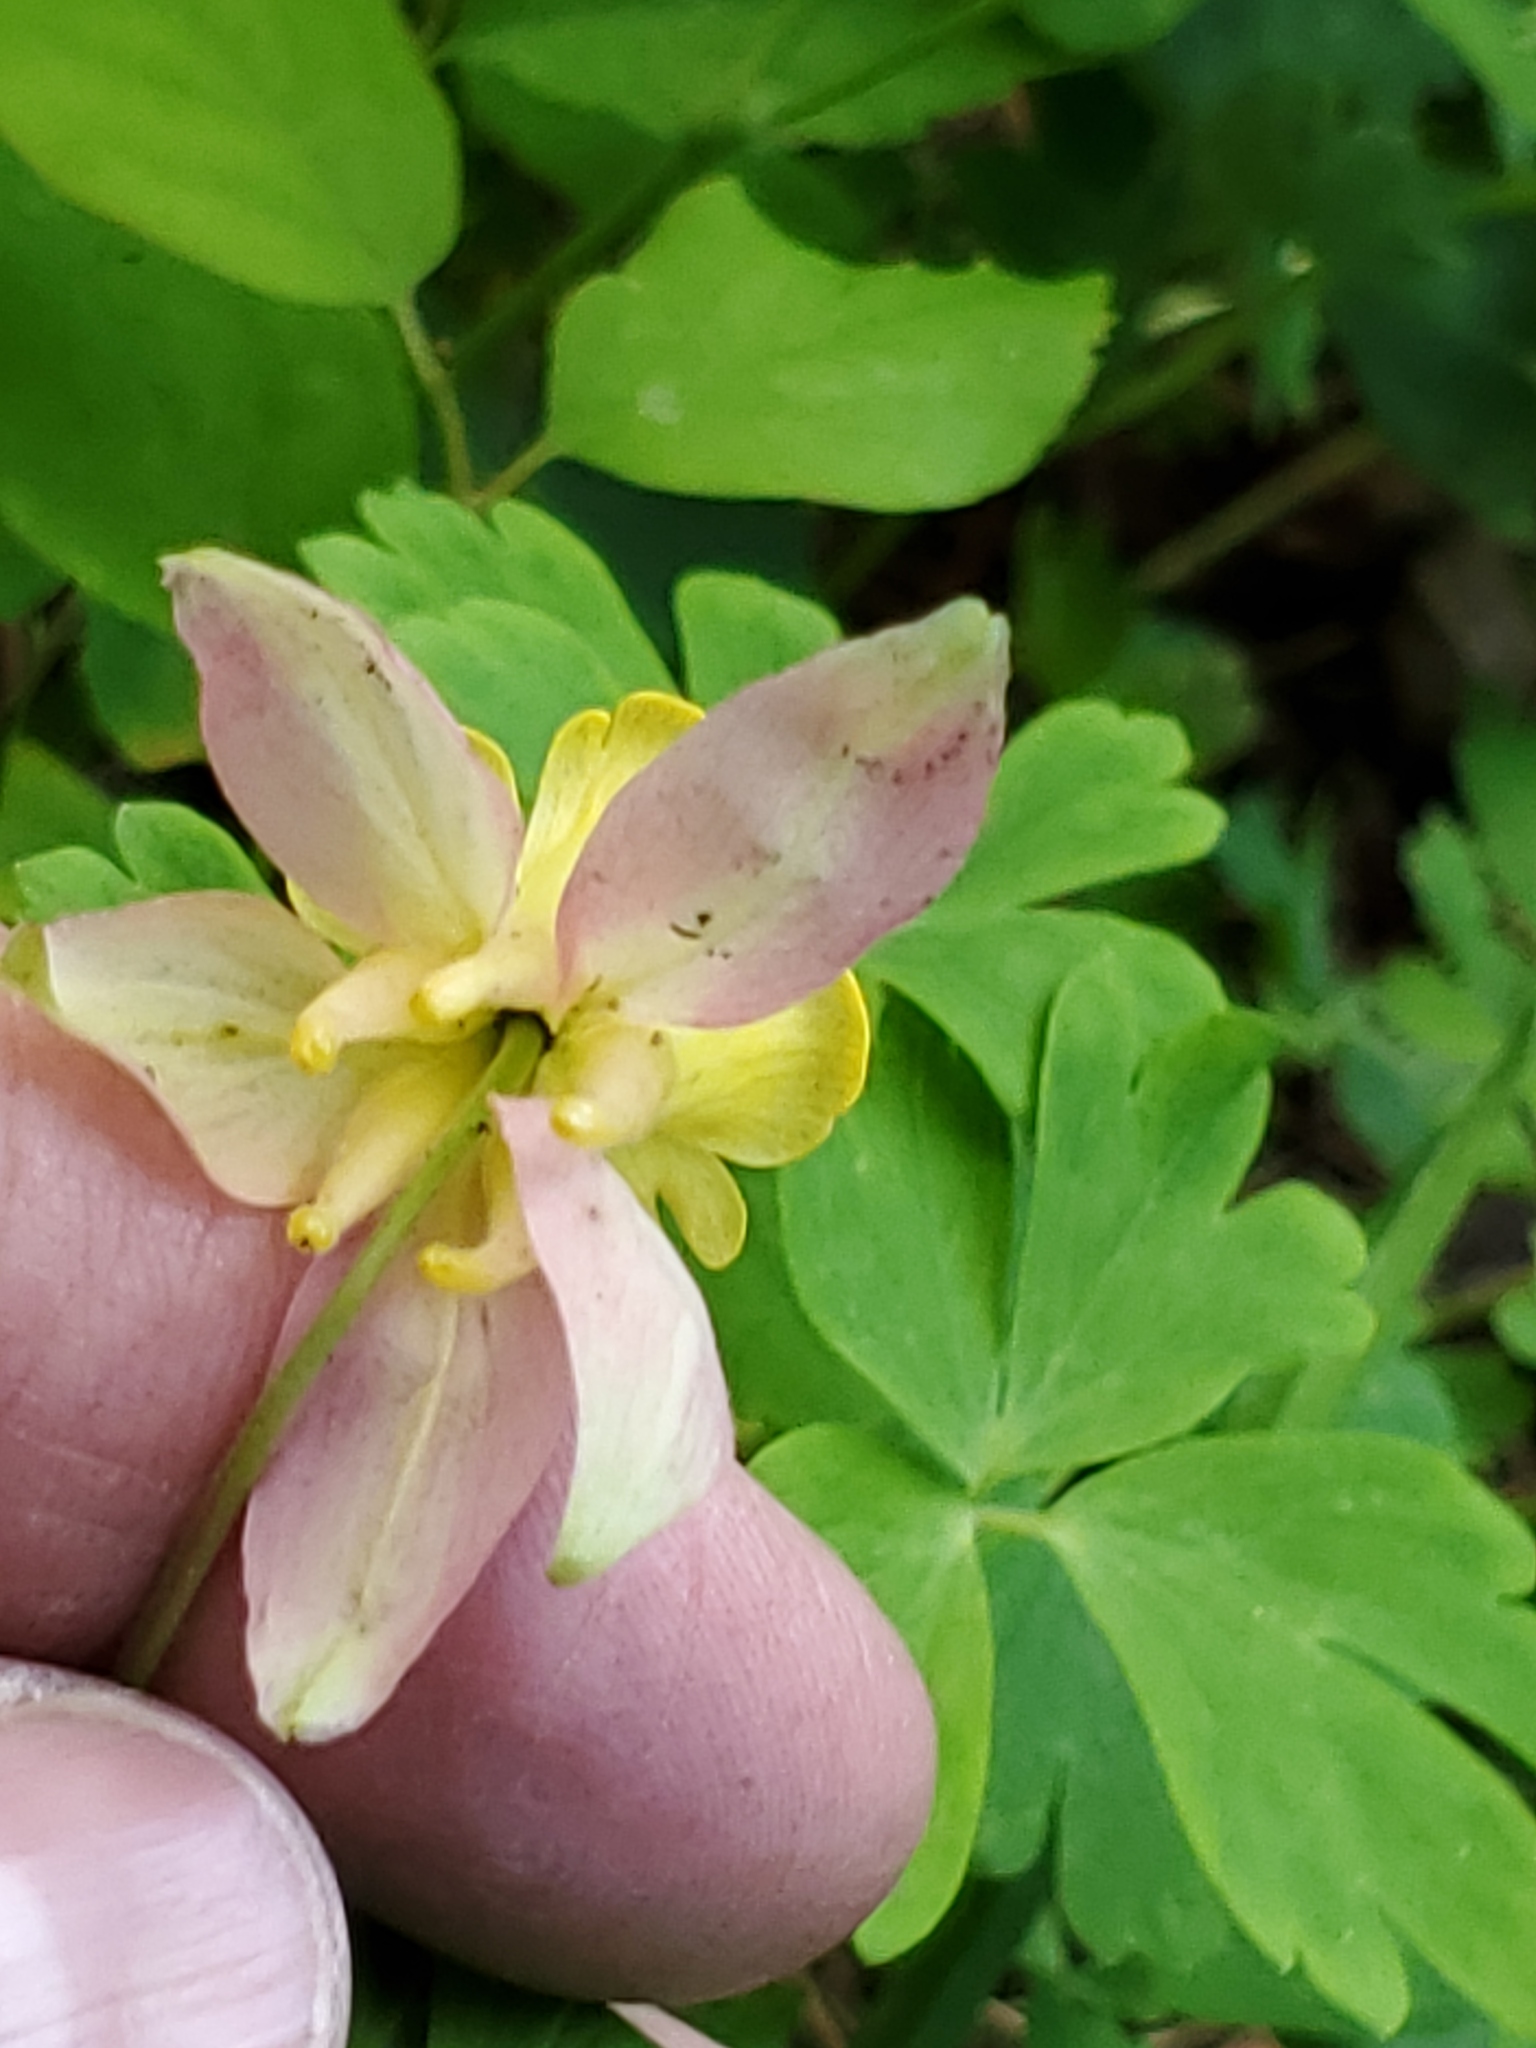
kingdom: Plantae
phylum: Tracheophyta
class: Magnoliopsida
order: Ranunculales
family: Ranunculaceae
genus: Aquilegia
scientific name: Aquilegia flavescens
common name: Yellow columbine
